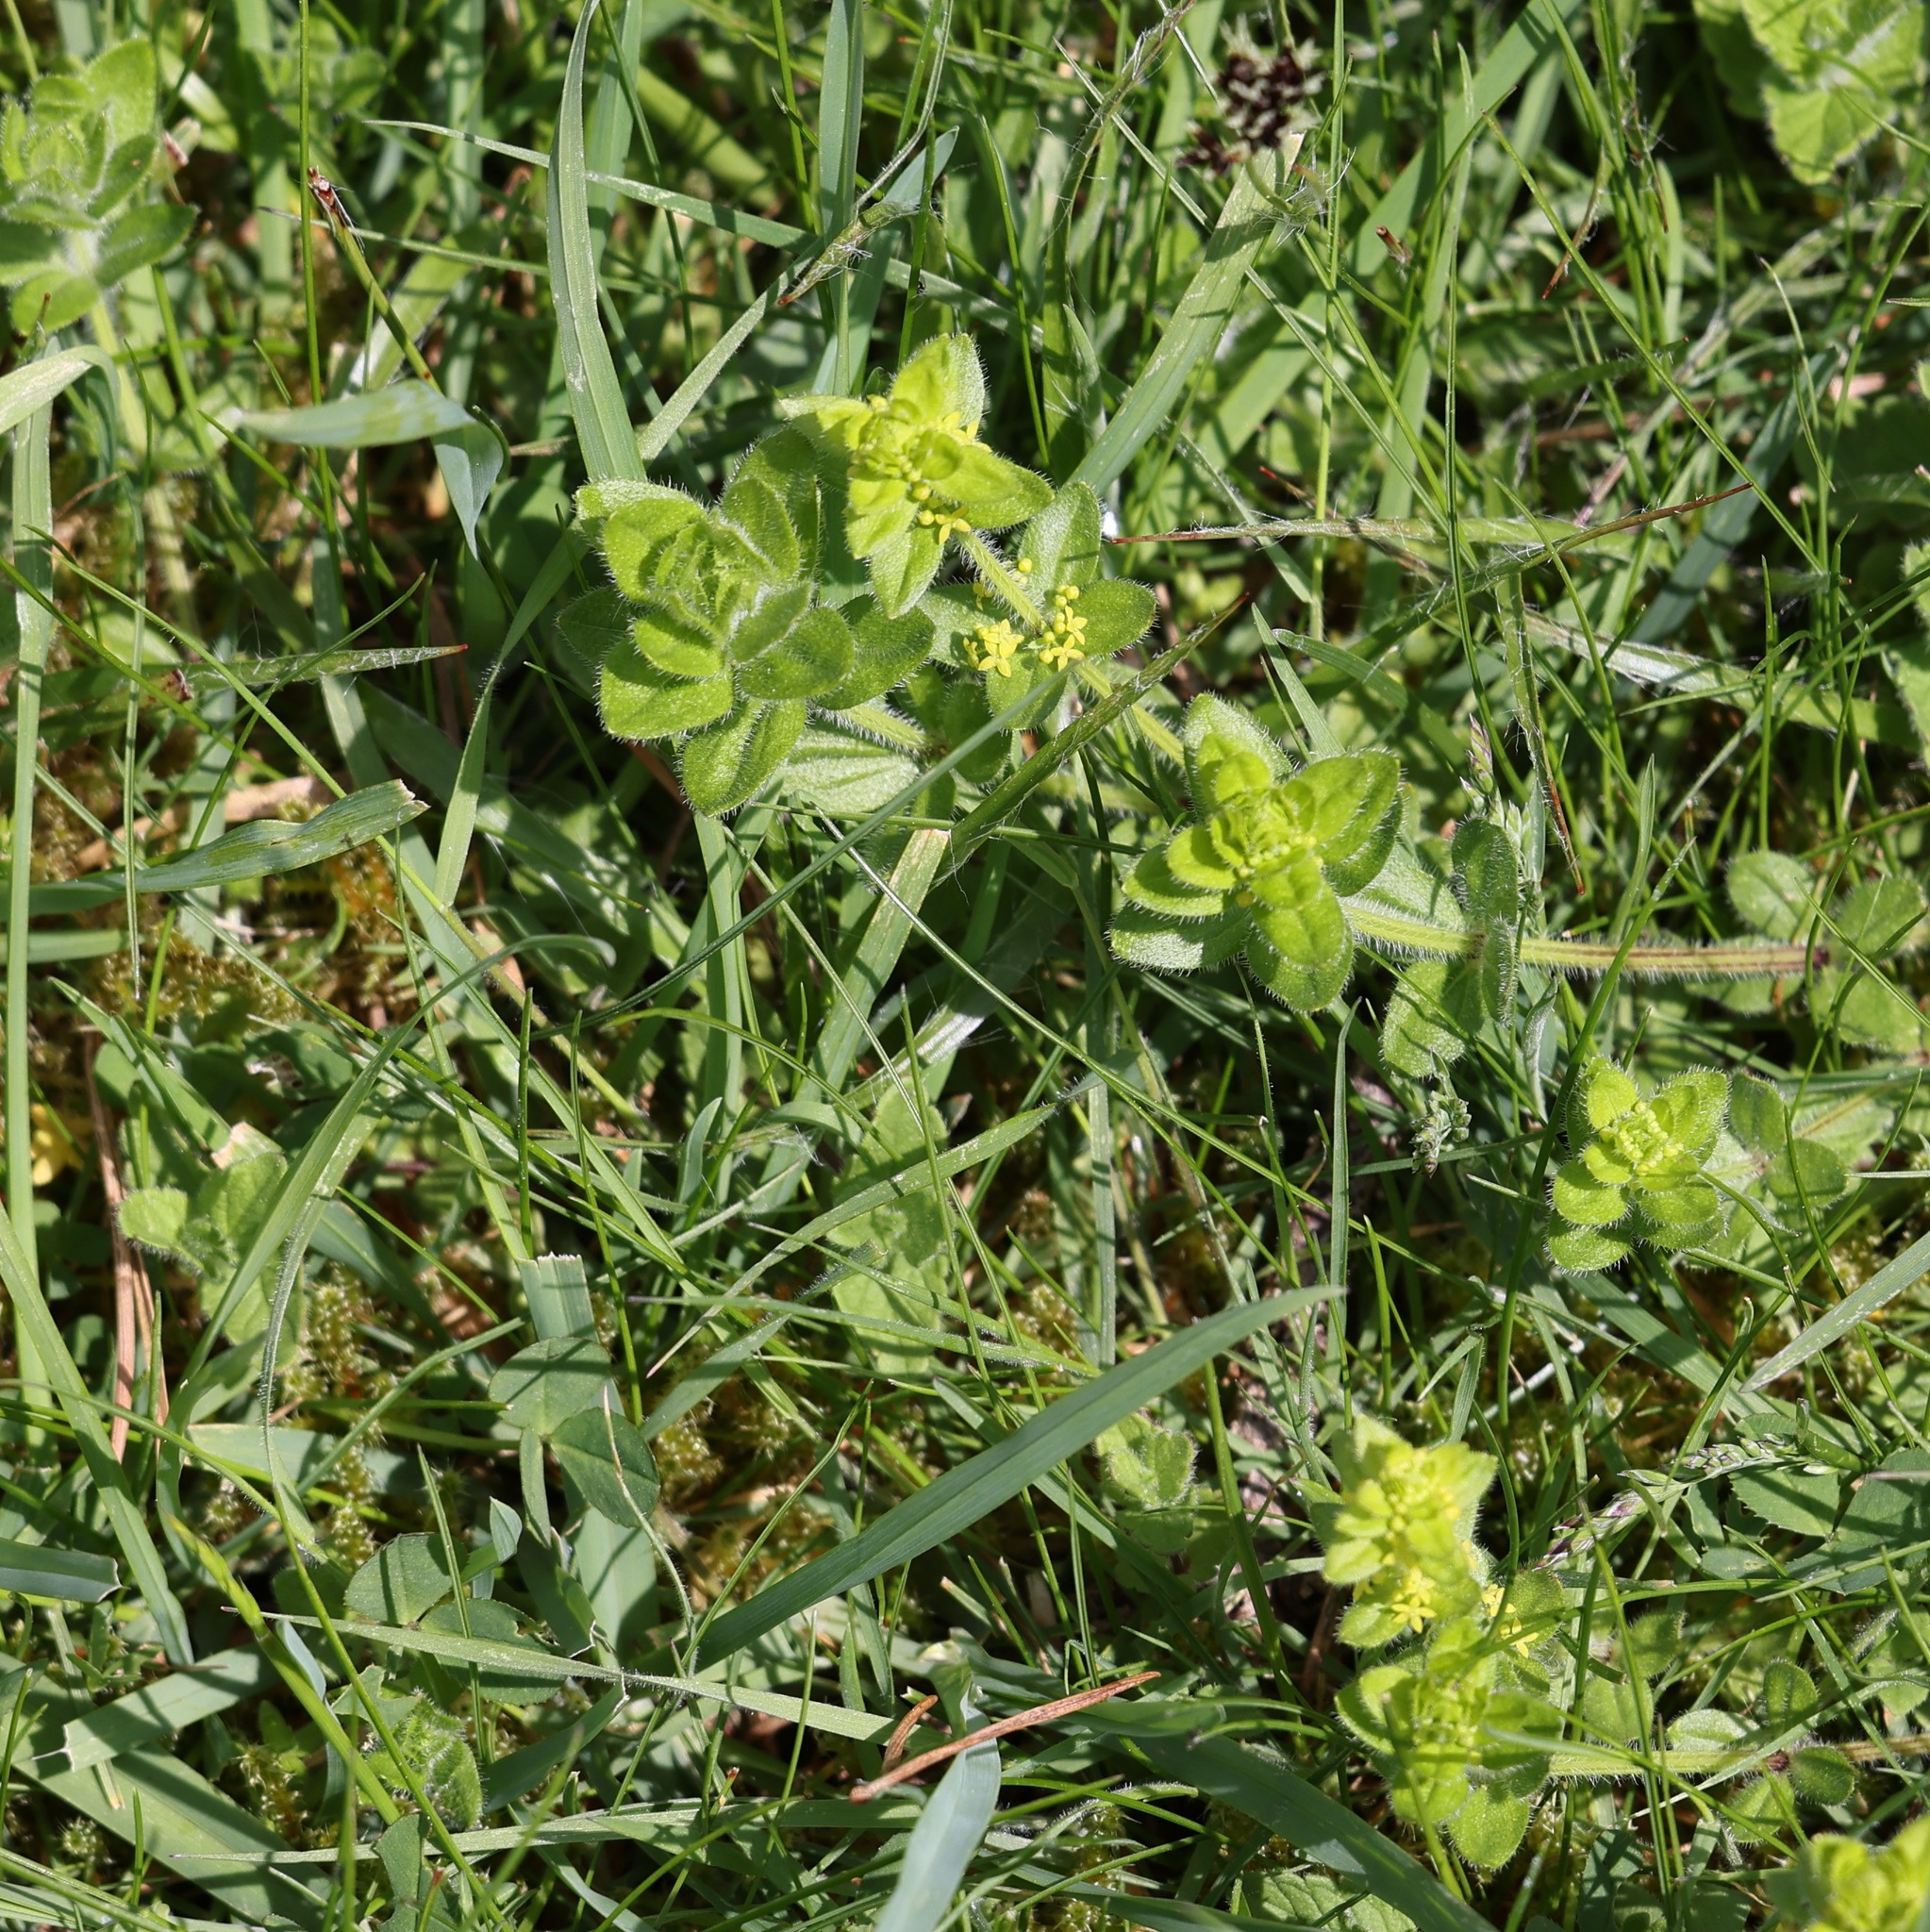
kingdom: Plantae
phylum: Tracheophyta
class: Magnoliopsida
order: Gentianales
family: Rubiaceae
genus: Cruciata
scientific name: Cruciata laevipes
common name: Crosswort
